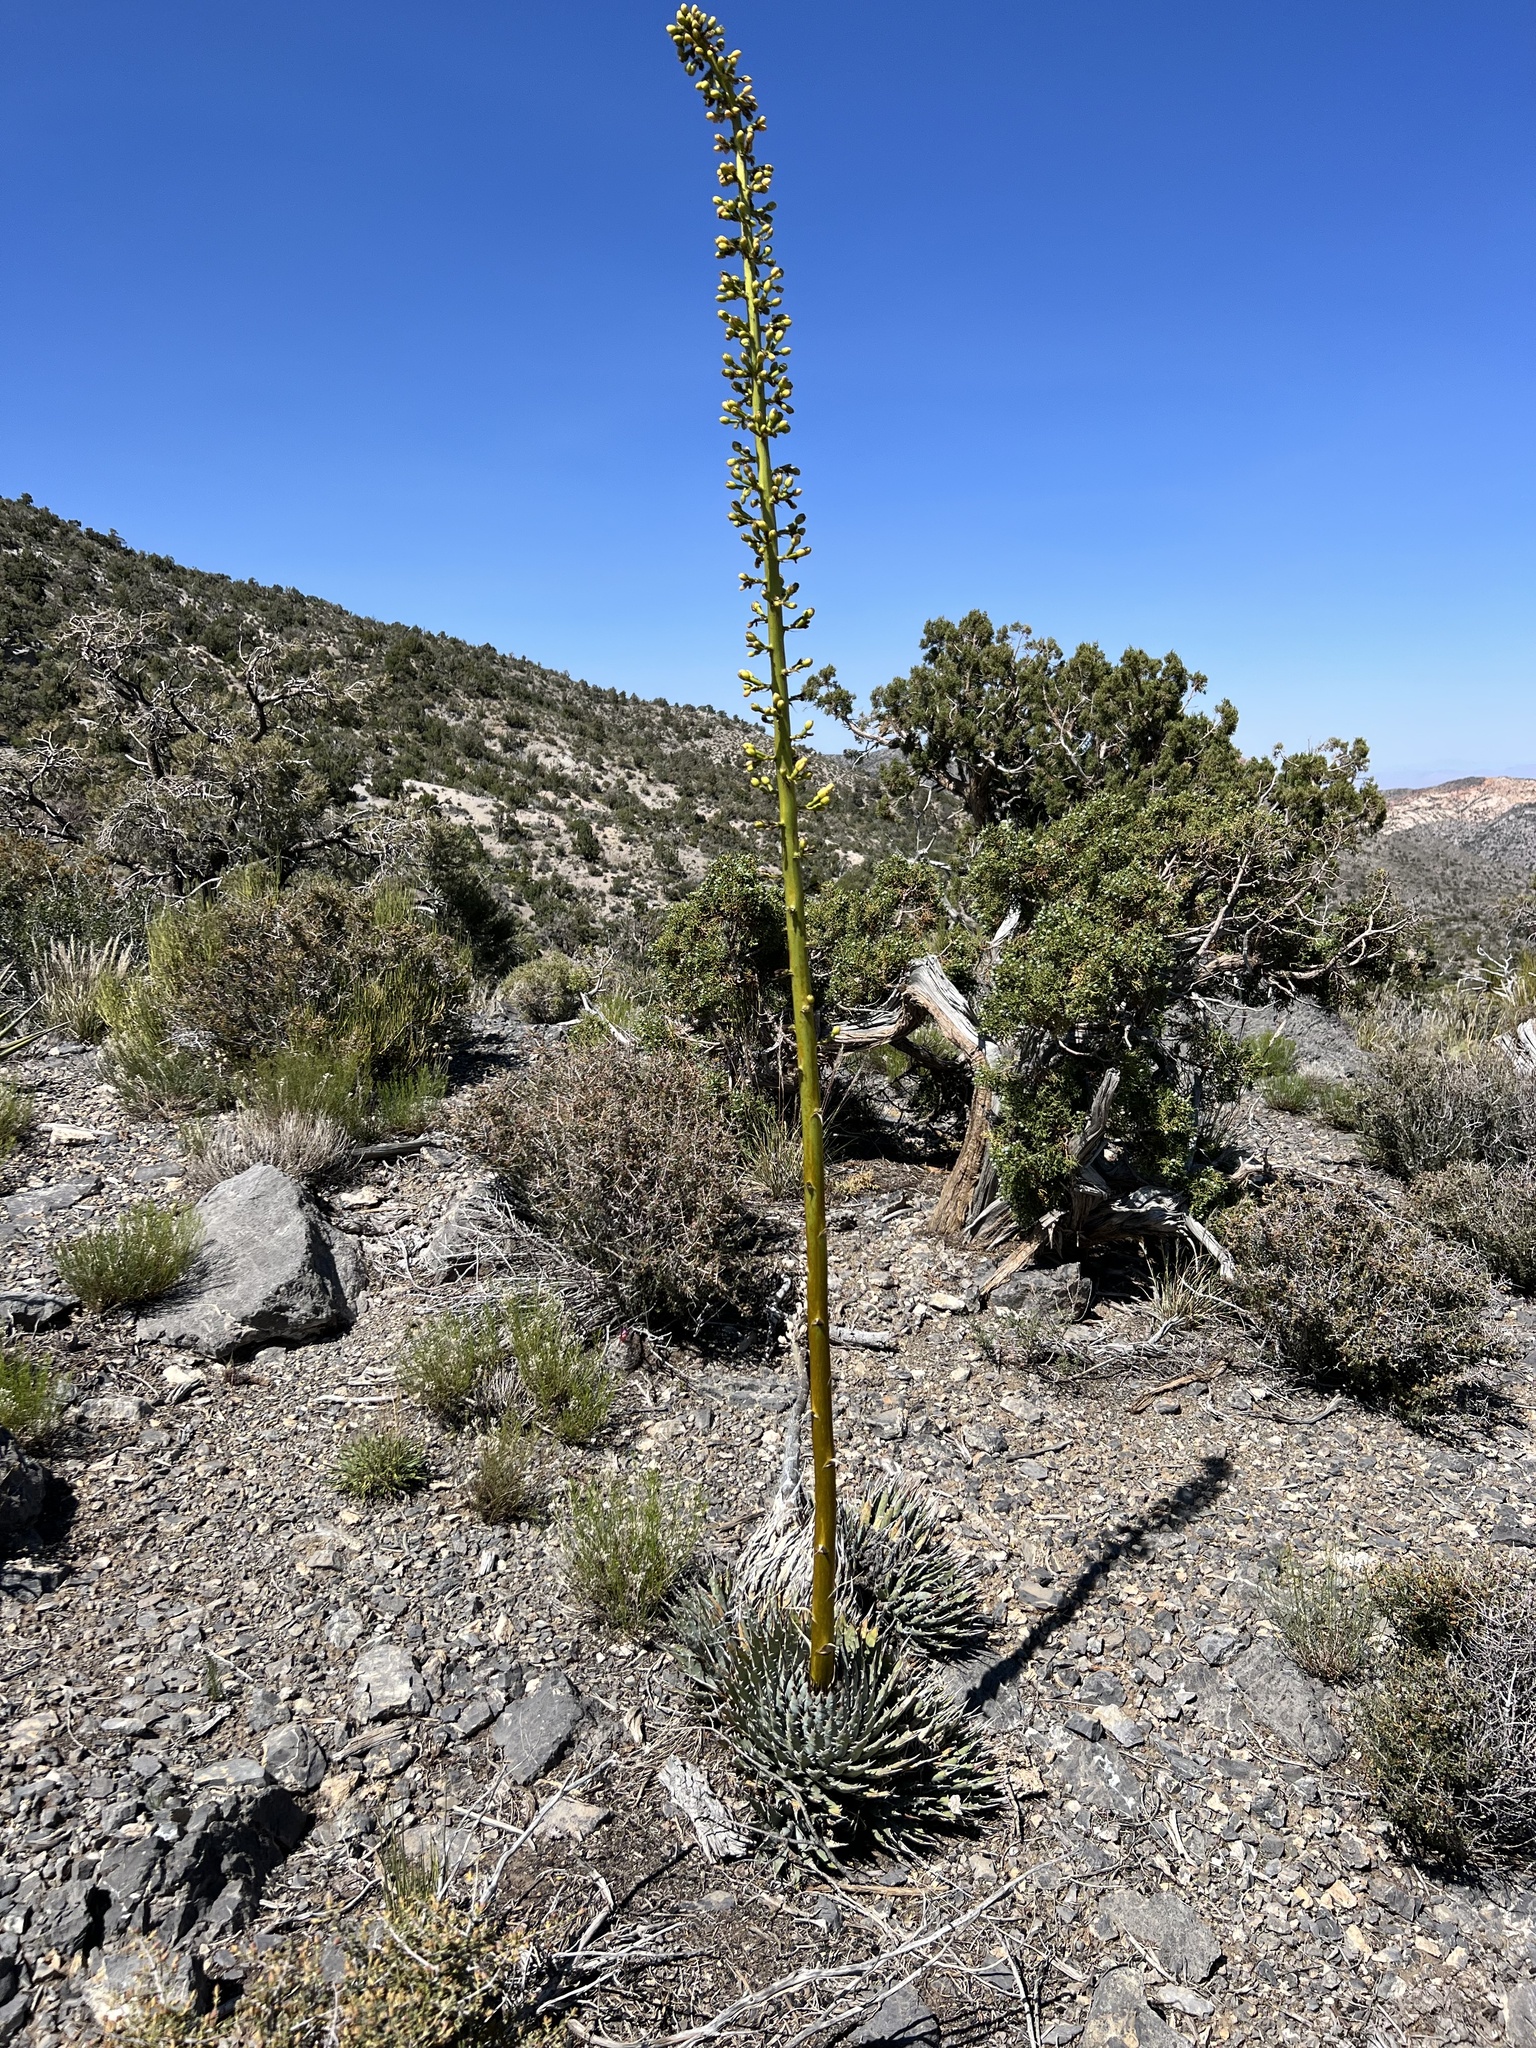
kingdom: Plantae
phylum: Tracheophyta
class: Liliopsida
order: Asparagales
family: Asparagaceae
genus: Agave
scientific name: Agave utahensis
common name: Utah agave
